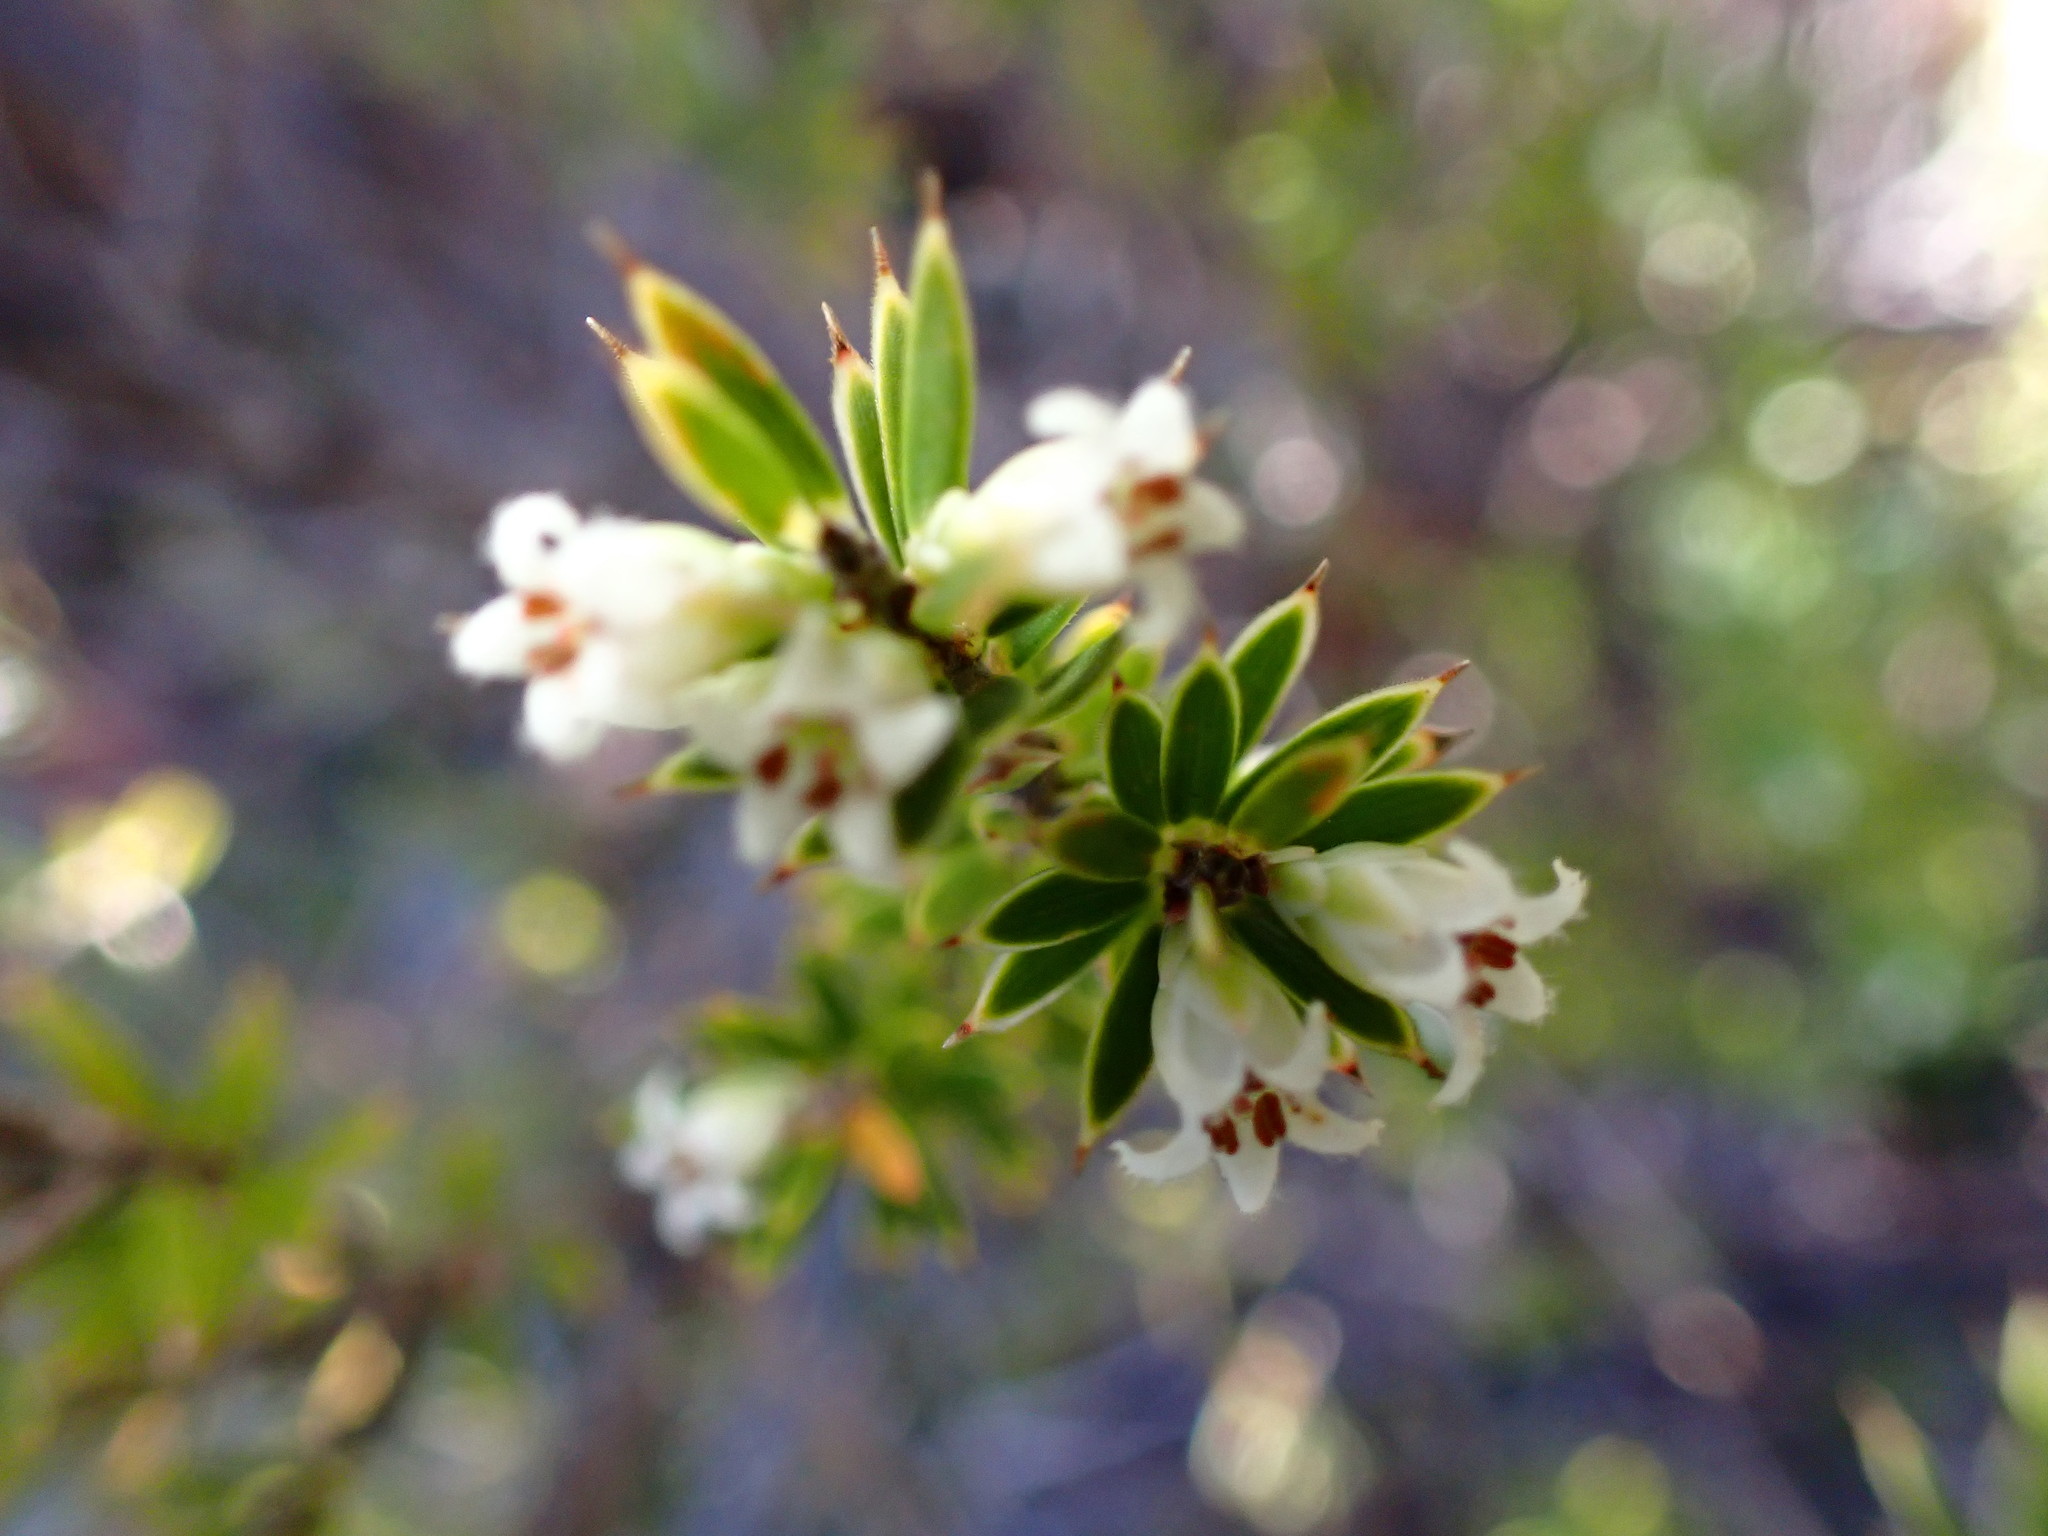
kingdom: Plantae
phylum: Tracheophyta
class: Magnoliopsida
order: Ericales
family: Ericaceae
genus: Leptecophylla
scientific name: Leptecophylla tameiameiae
